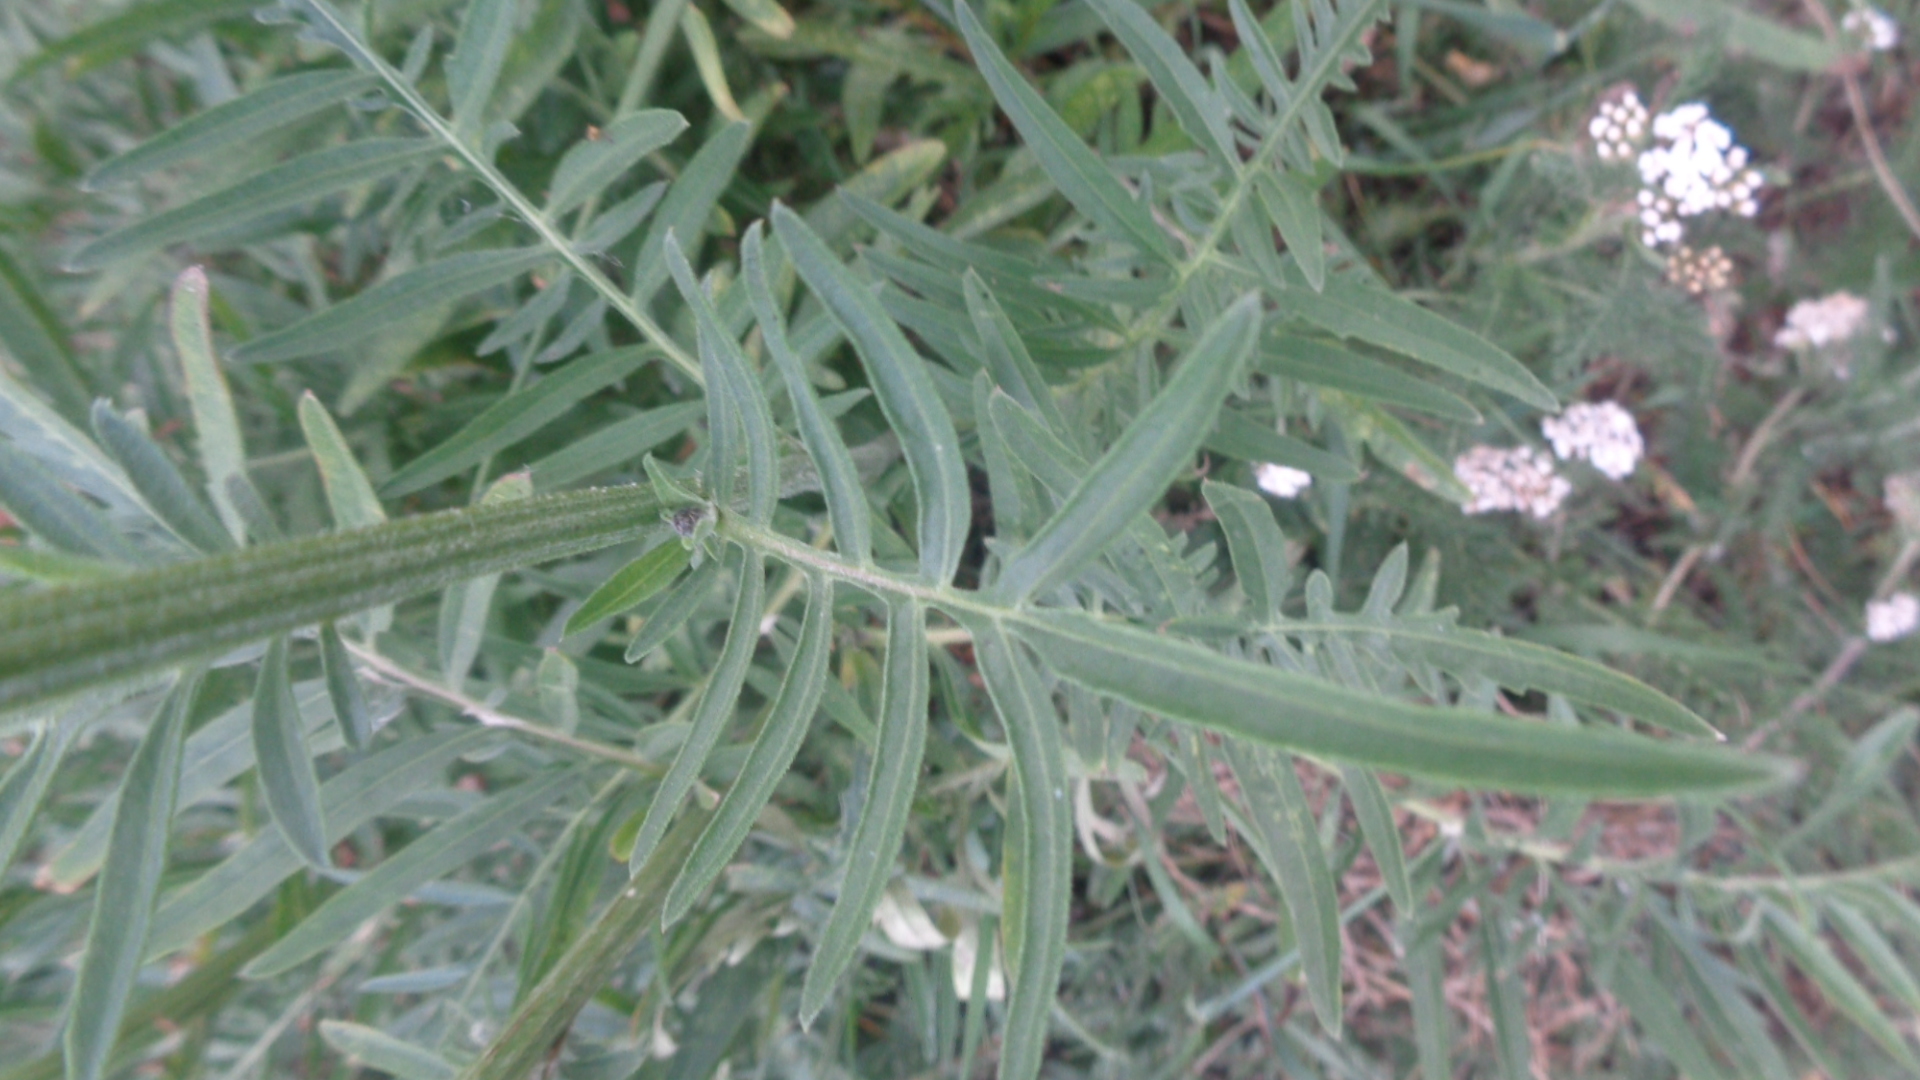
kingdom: Plantae
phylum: Tracheophyta
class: Magnoliopsida
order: Asterales
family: Asteraceae
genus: Centaurea
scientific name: Centaurea scabiosa
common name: Greater knapweed
